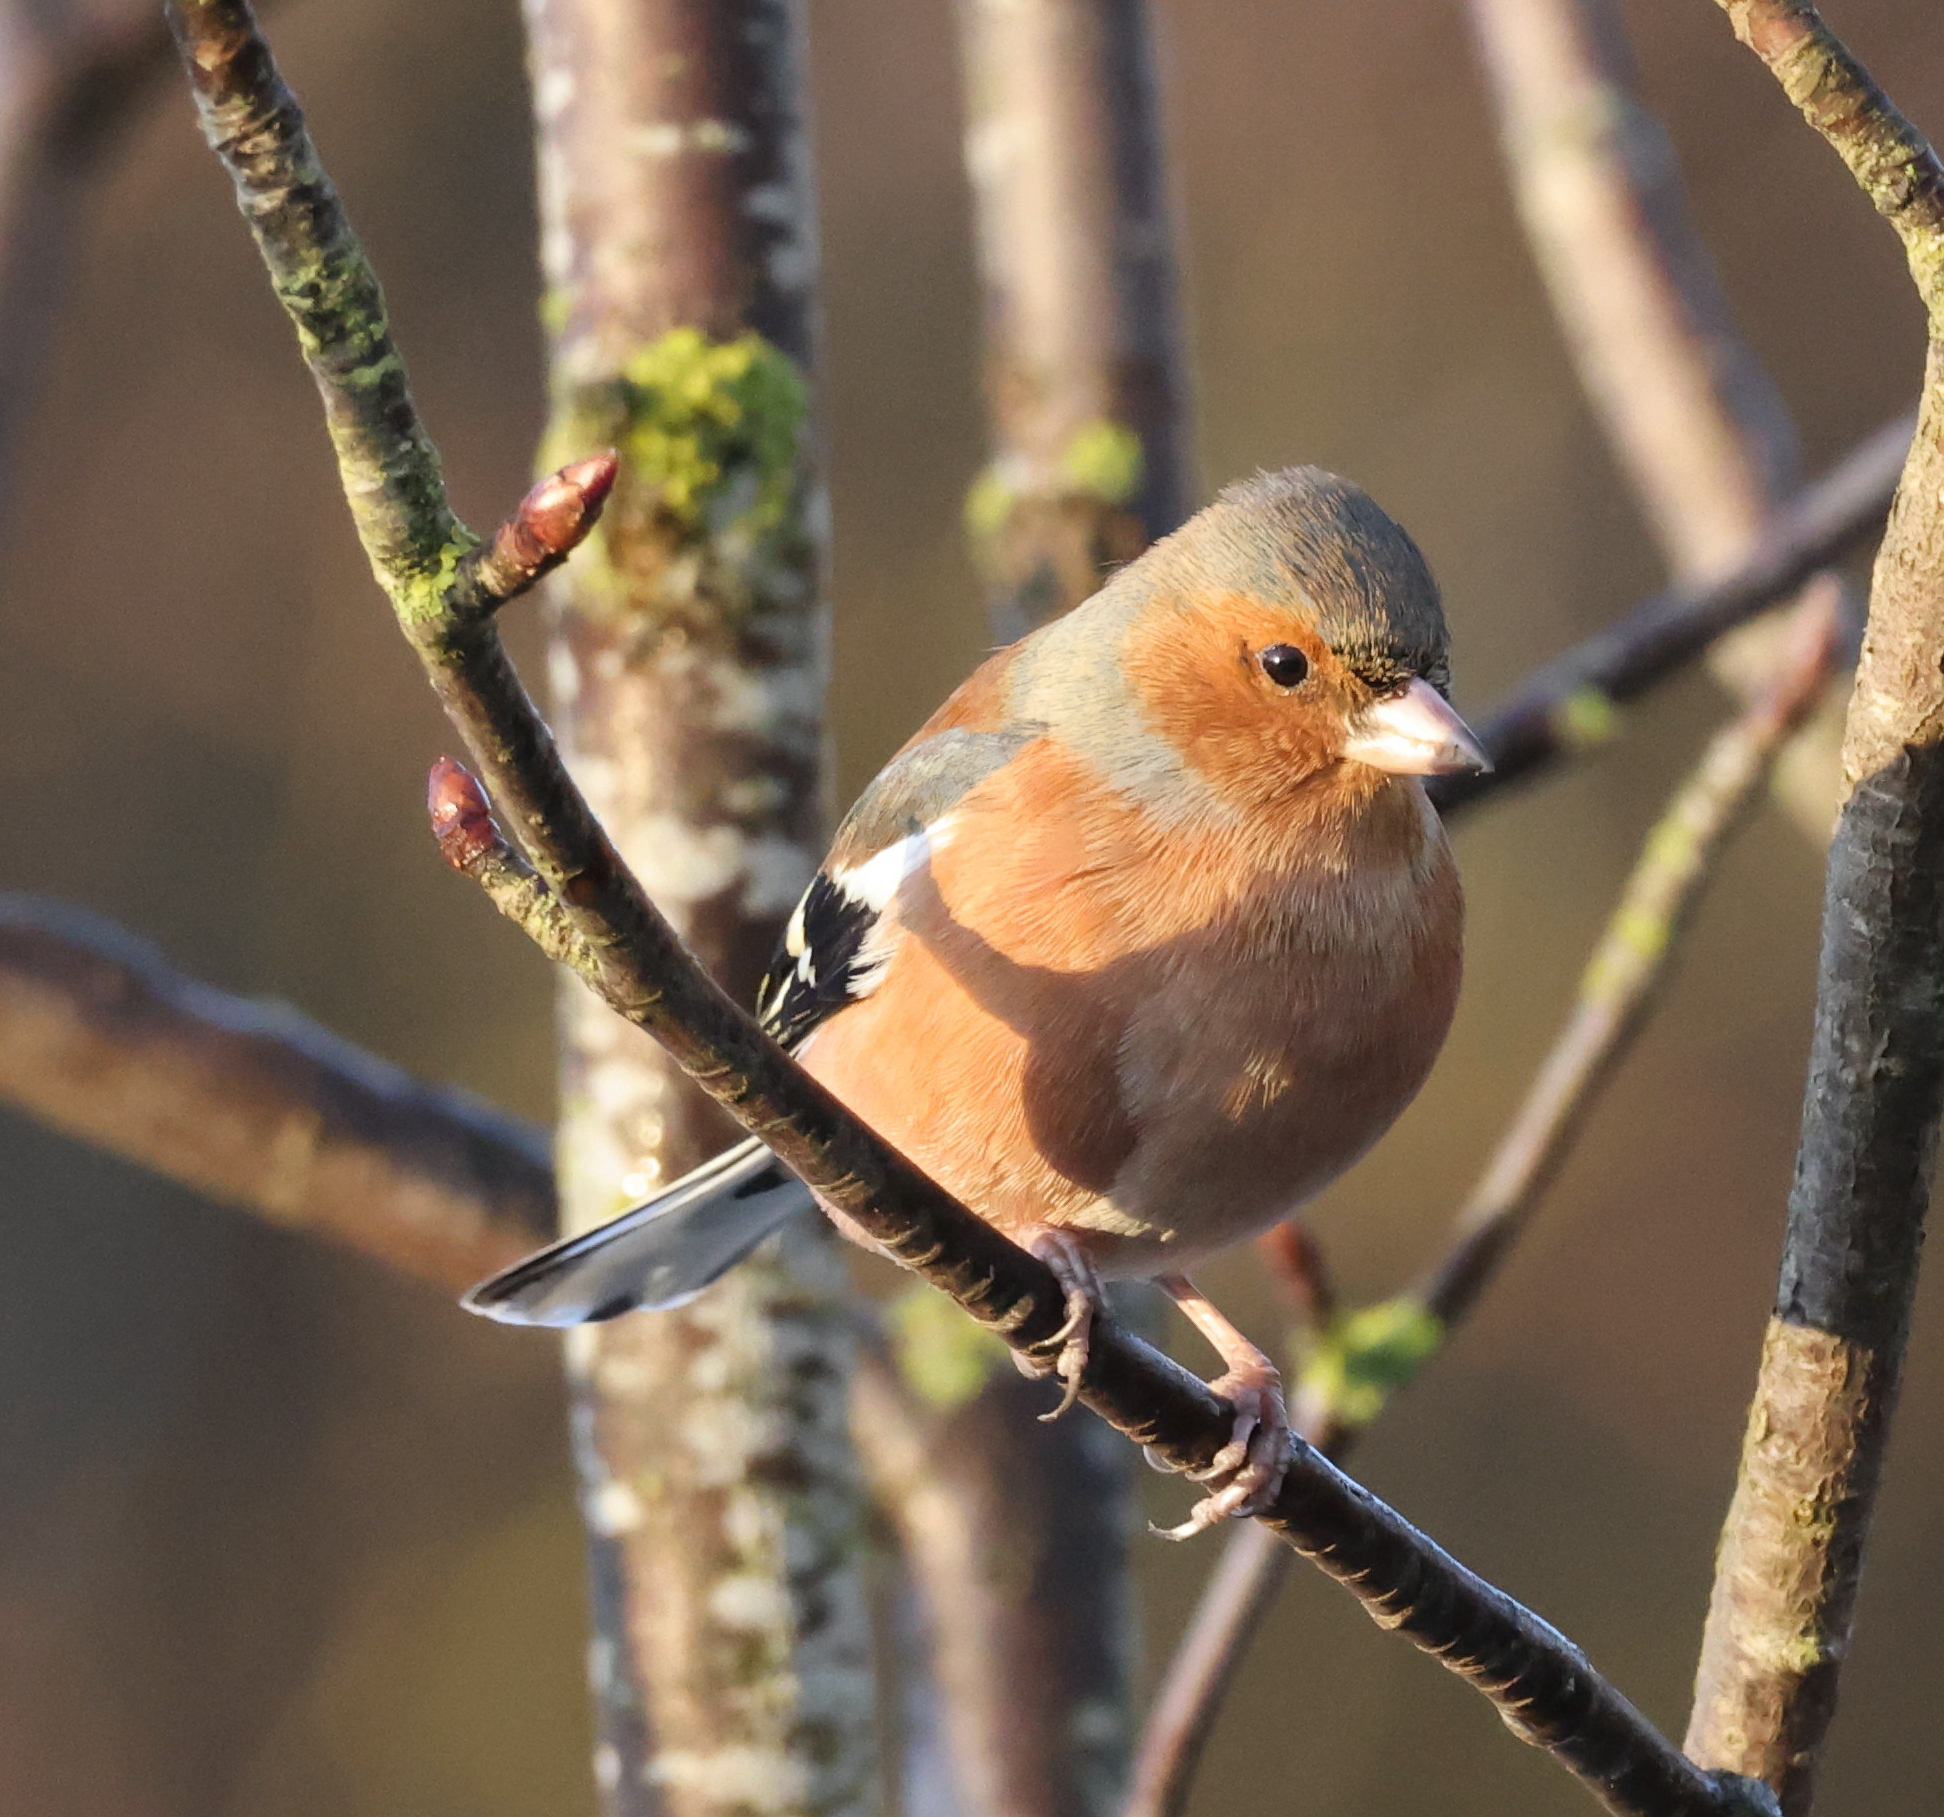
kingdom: Animalia
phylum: Chordata
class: Aves
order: Passeriformes
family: Fringillidae
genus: Fringilla
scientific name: Fringilla coelebs
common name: Common chaffinch
